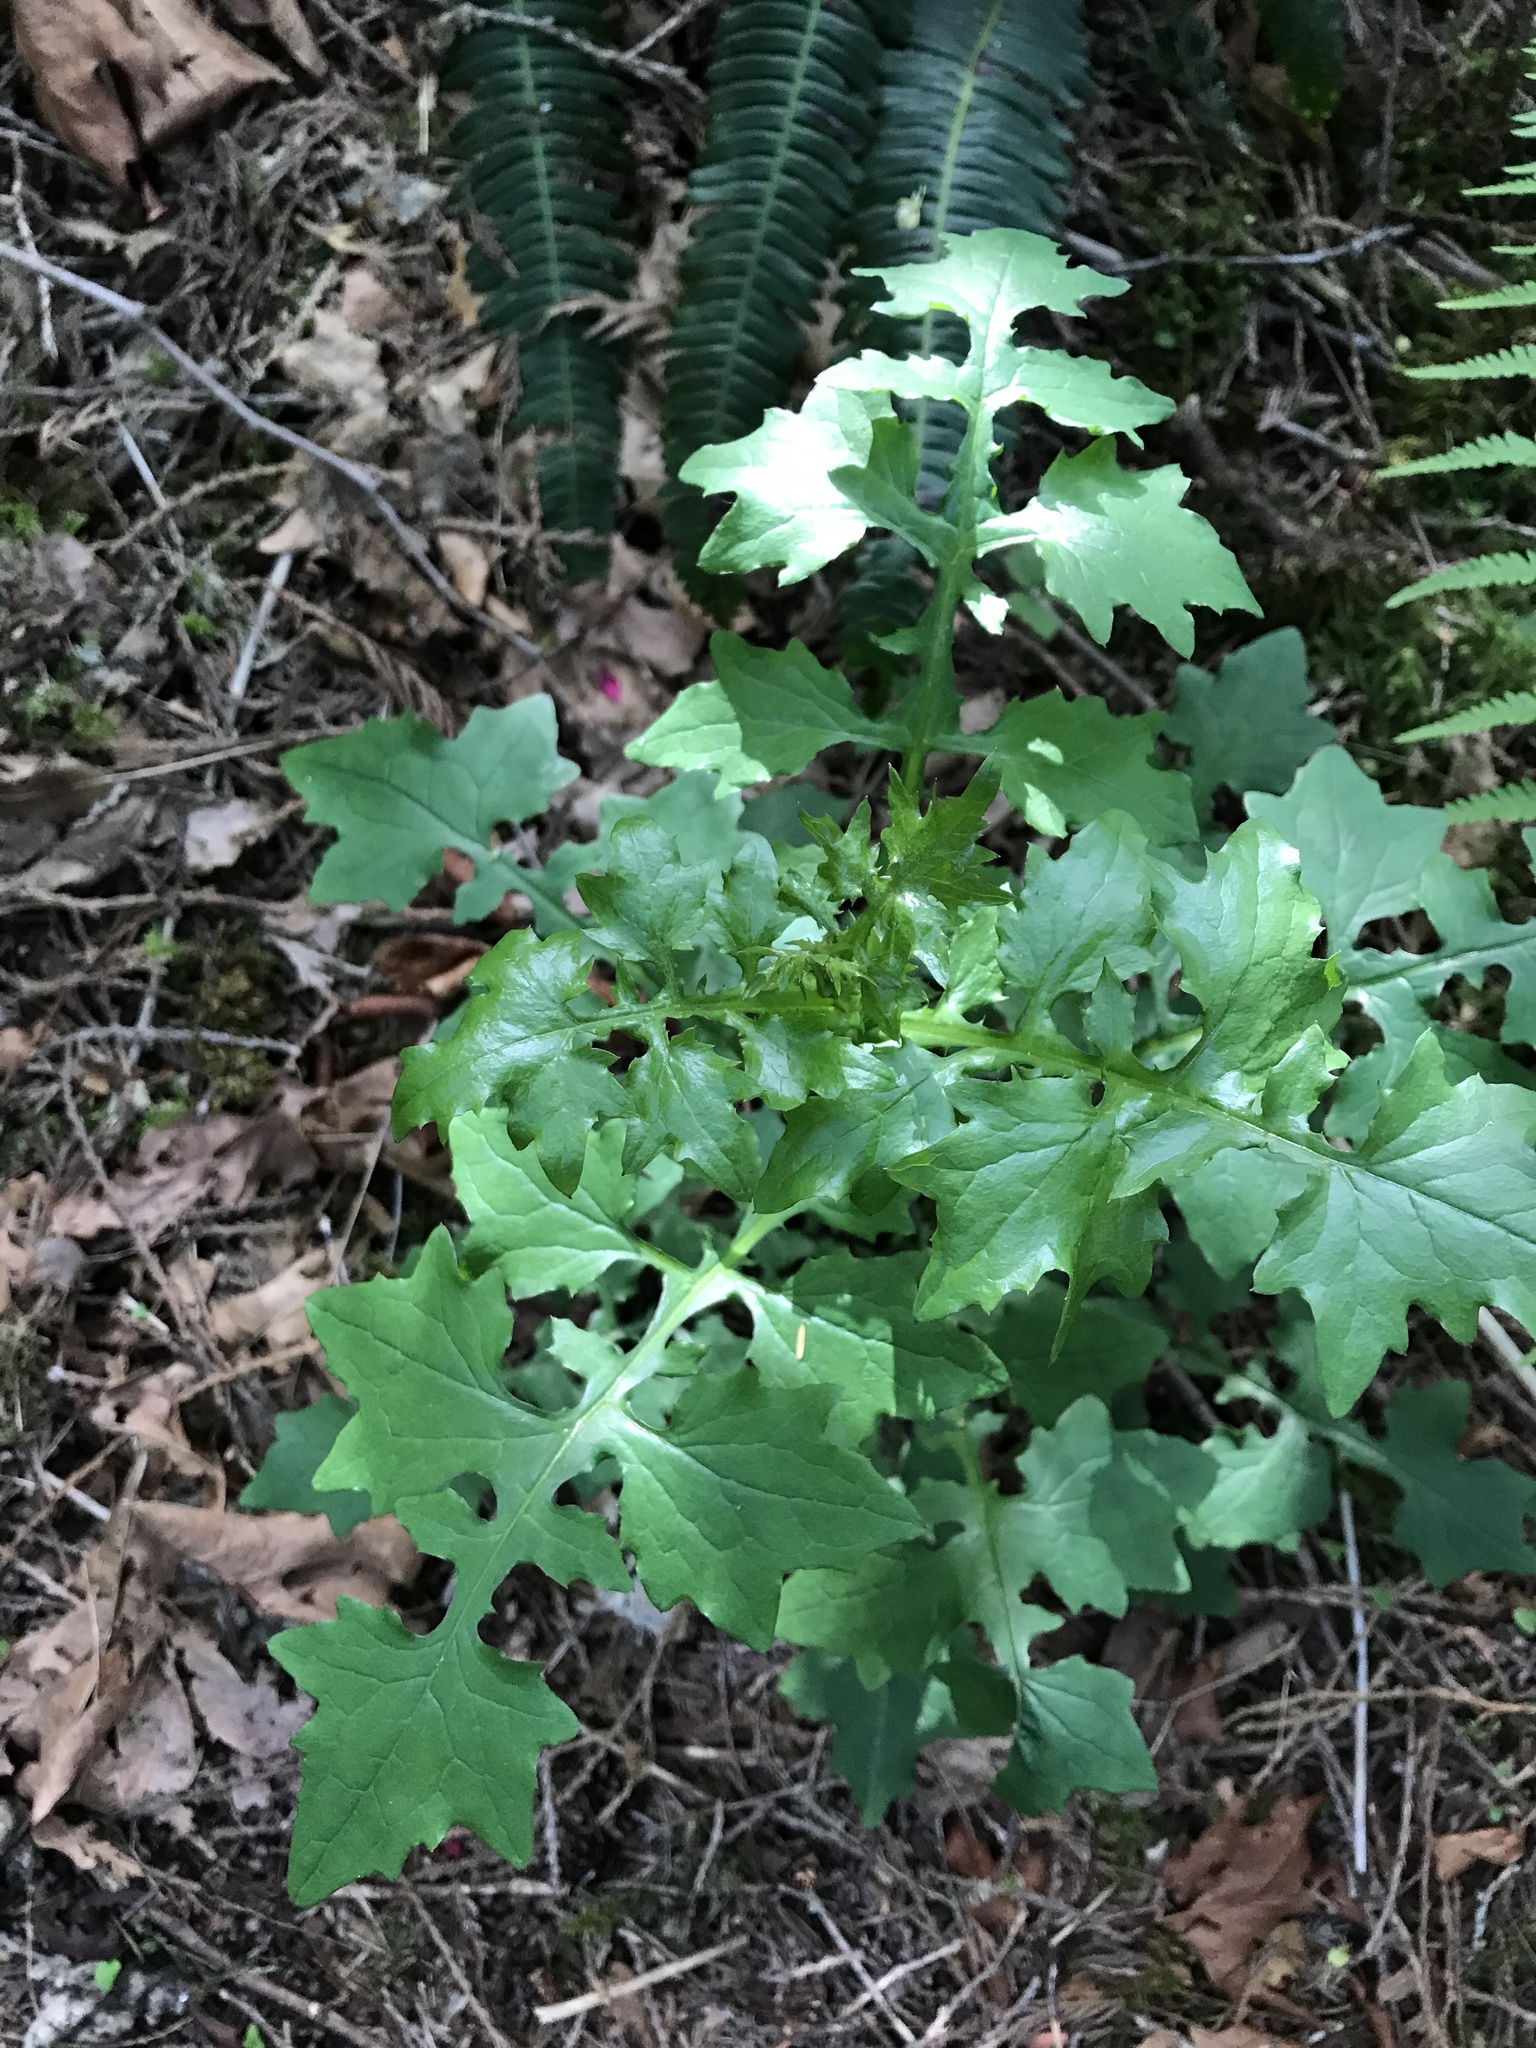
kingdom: Plantae
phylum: Tracheophyta
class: Magnoliopsida
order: Asterales
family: Asteraceae
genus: Mycelis
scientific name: Mycelis muralis
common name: Wall lettuce
